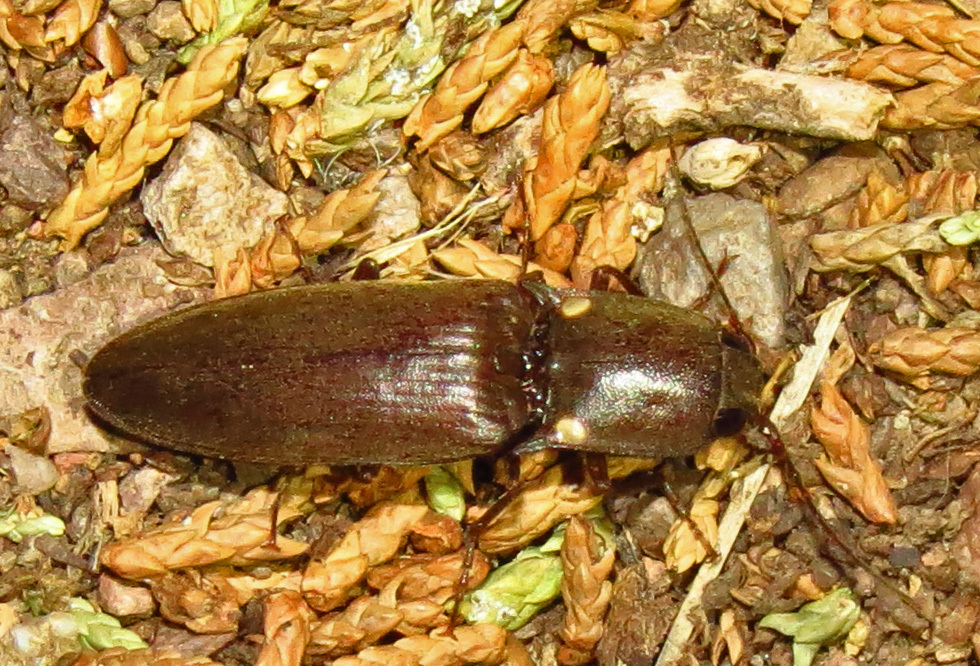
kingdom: Animalia
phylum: Arthropoda
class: Insecta
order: Coleoptera
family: Elateridae
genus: Deilelater
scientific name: Deilelater
